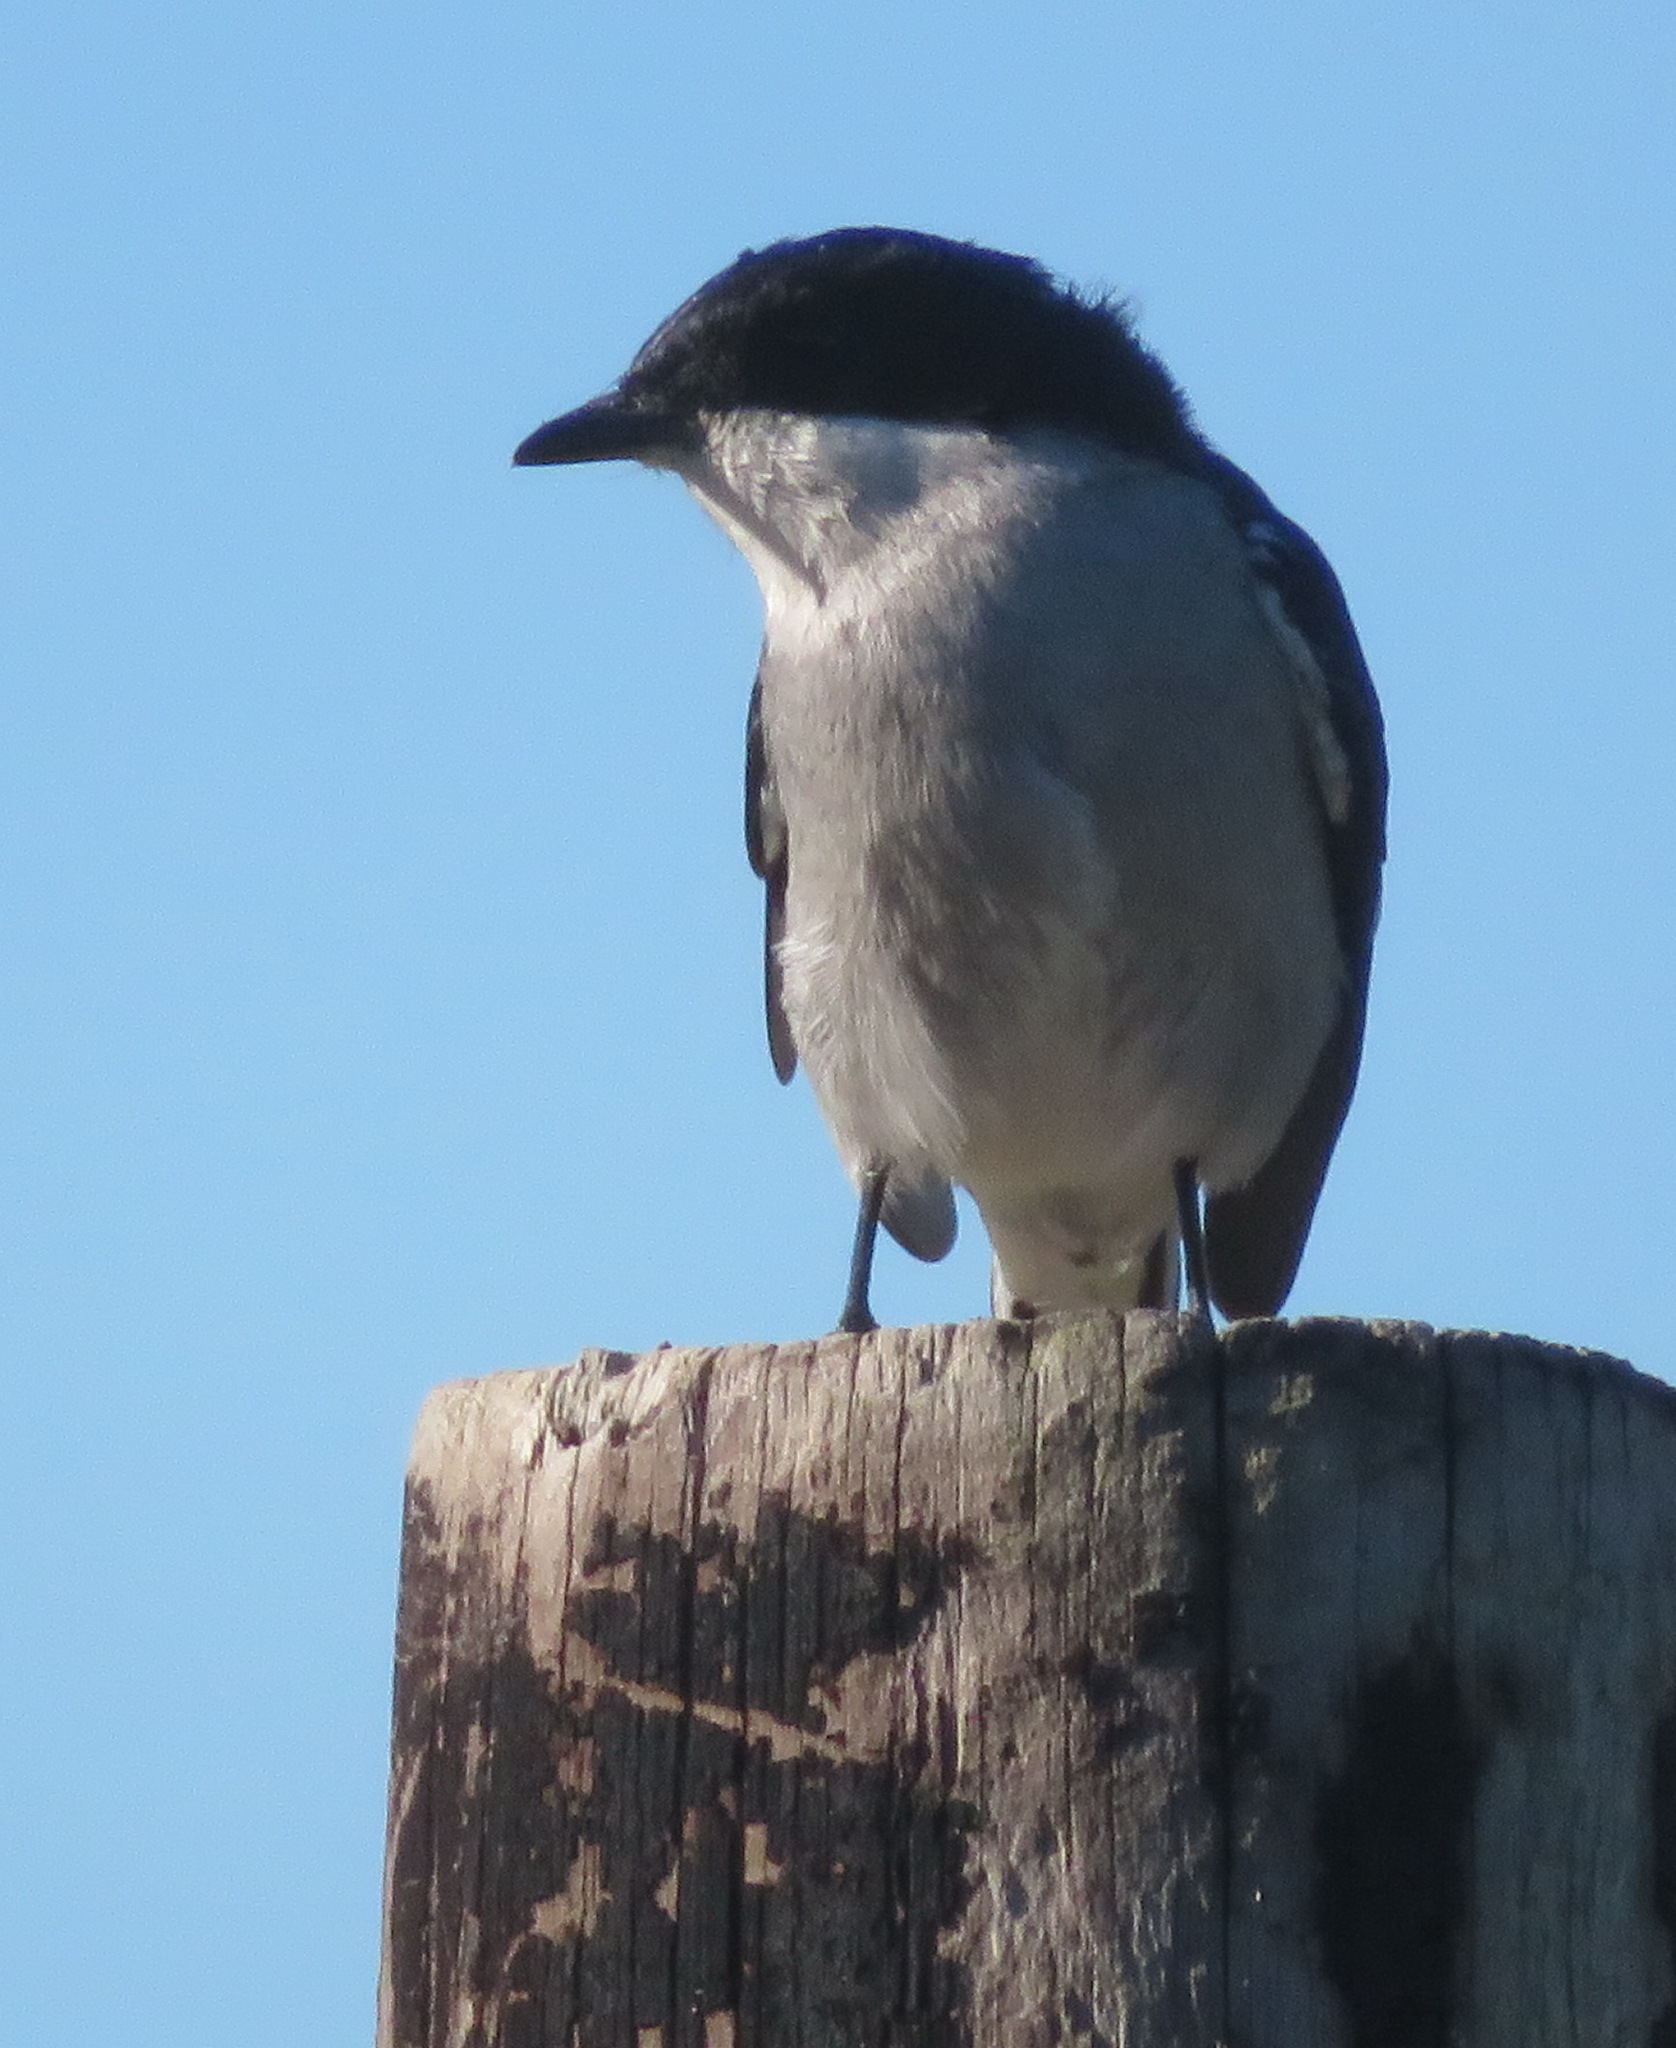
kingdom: Animalia
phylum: Chordata
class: Aves
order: Passeriformes
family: Muscicapidae
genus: Sigelus
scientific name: Sigelus silens
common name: Fiscal flycatcher
